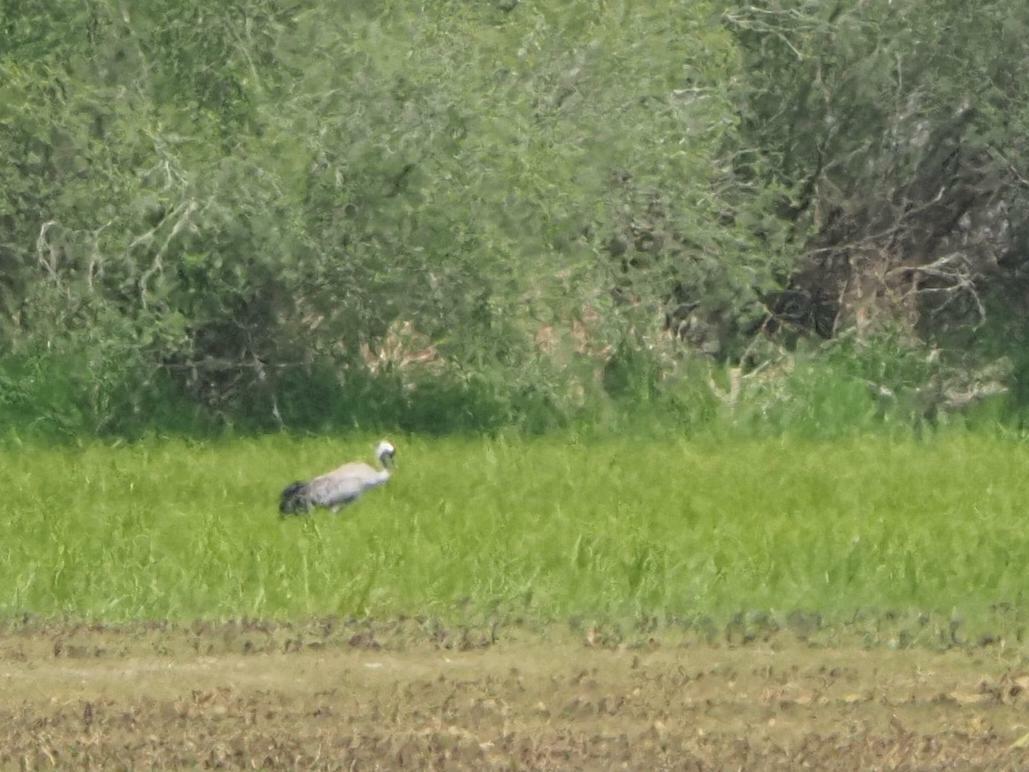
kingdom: Animalia
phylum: Chordata
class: Aves
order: Gruiformes
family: Gruidae
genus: Grus
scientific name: Grus grus
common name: Common crane
